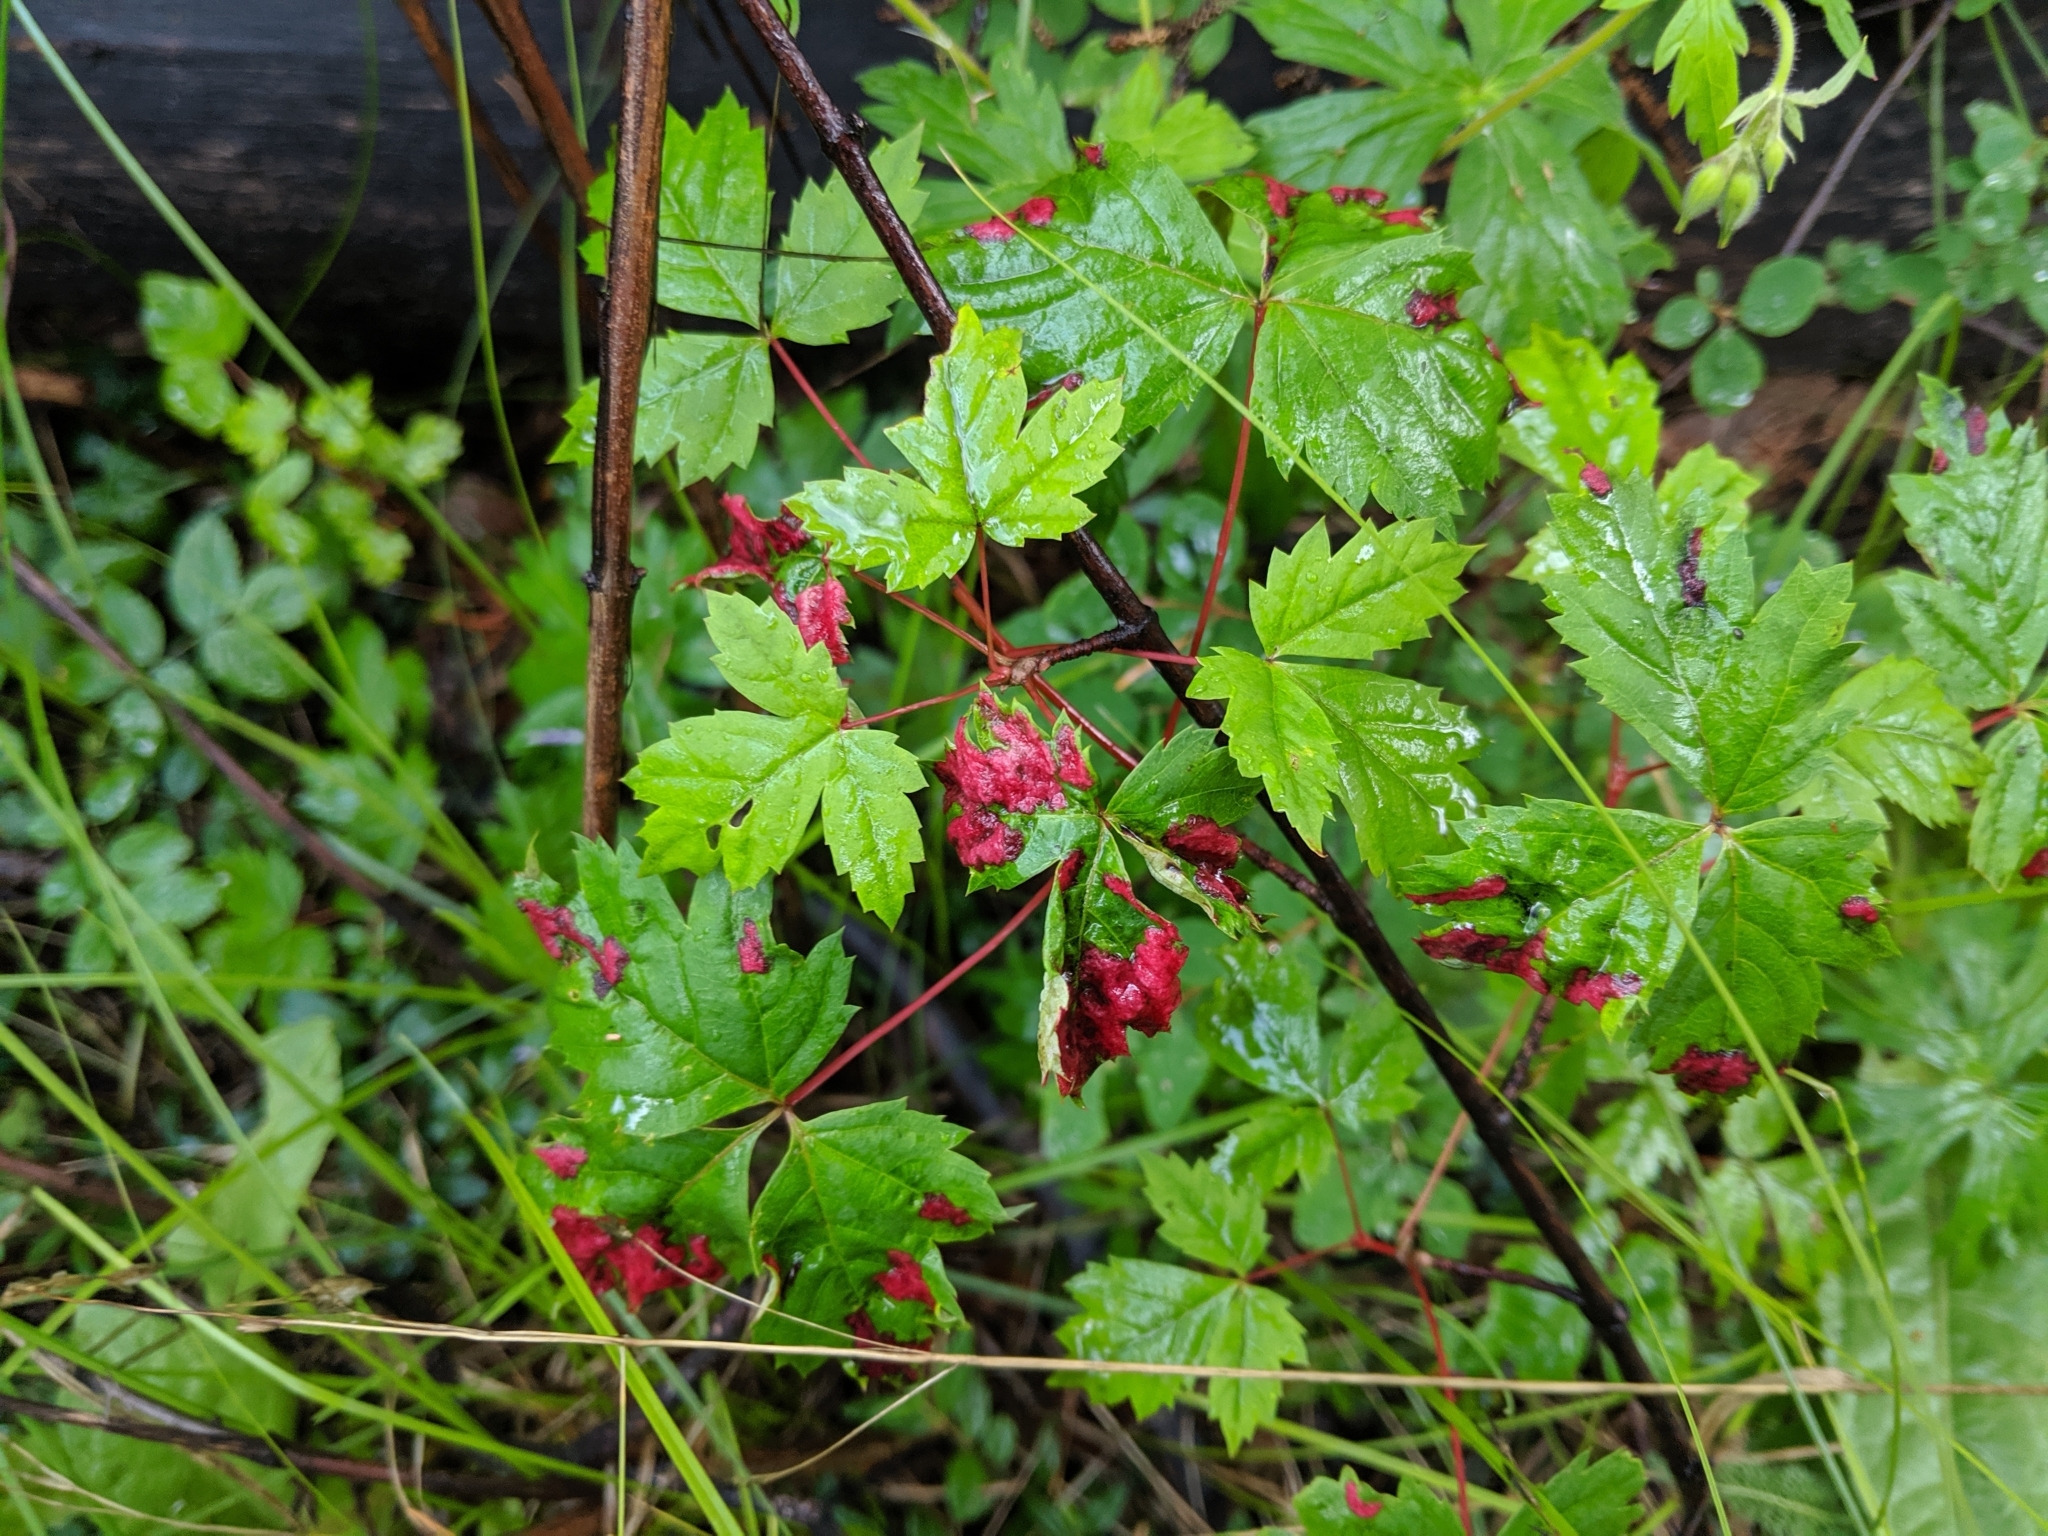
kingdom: Animalia
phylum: Arthropoda
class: Arachnida
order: Trombidiformes
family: Eriophyidae
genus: Aceria
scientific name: Aceria
